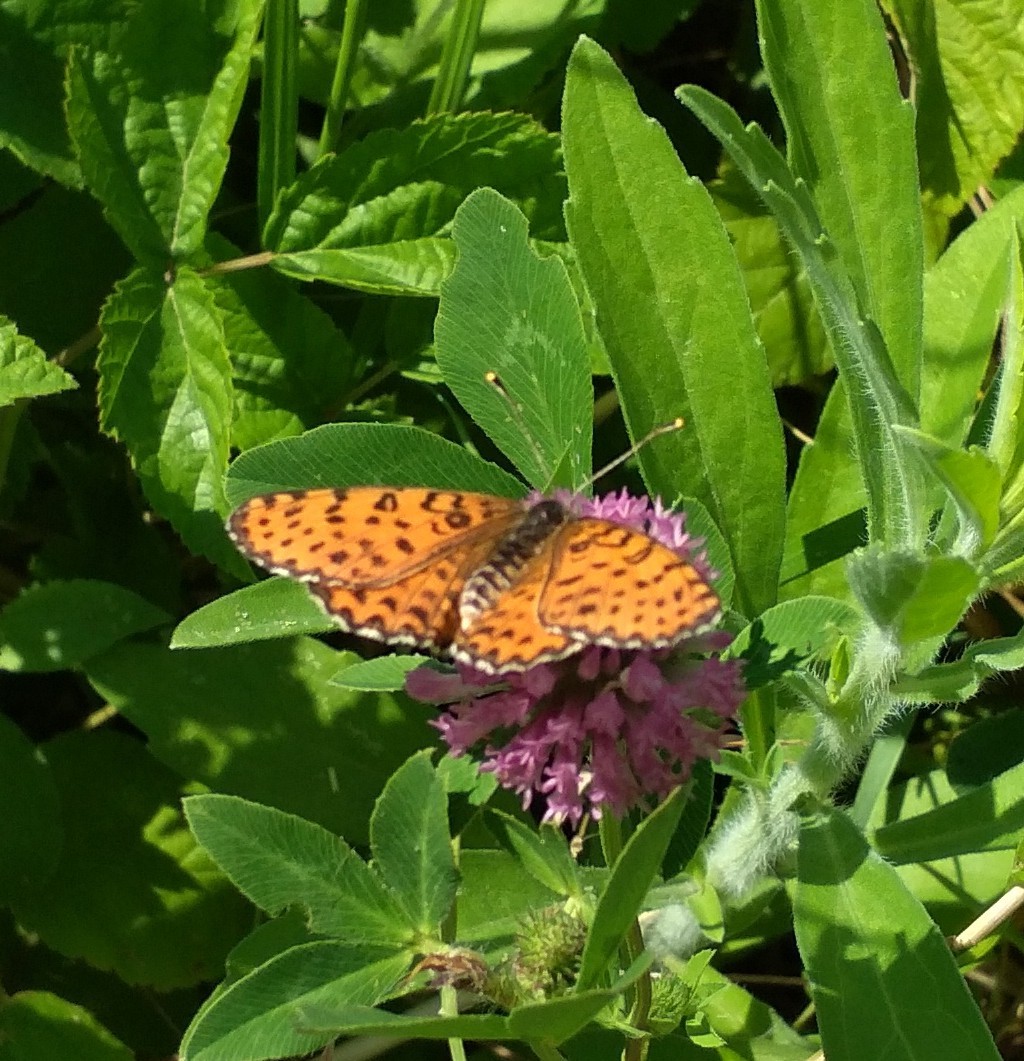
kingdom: Animalia
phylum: Arthropoda
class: Insecta
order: Lepidoptera
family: Nymphalidae
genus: Melitaea
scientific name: Melitaea didyma
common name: Spotted fritillary
